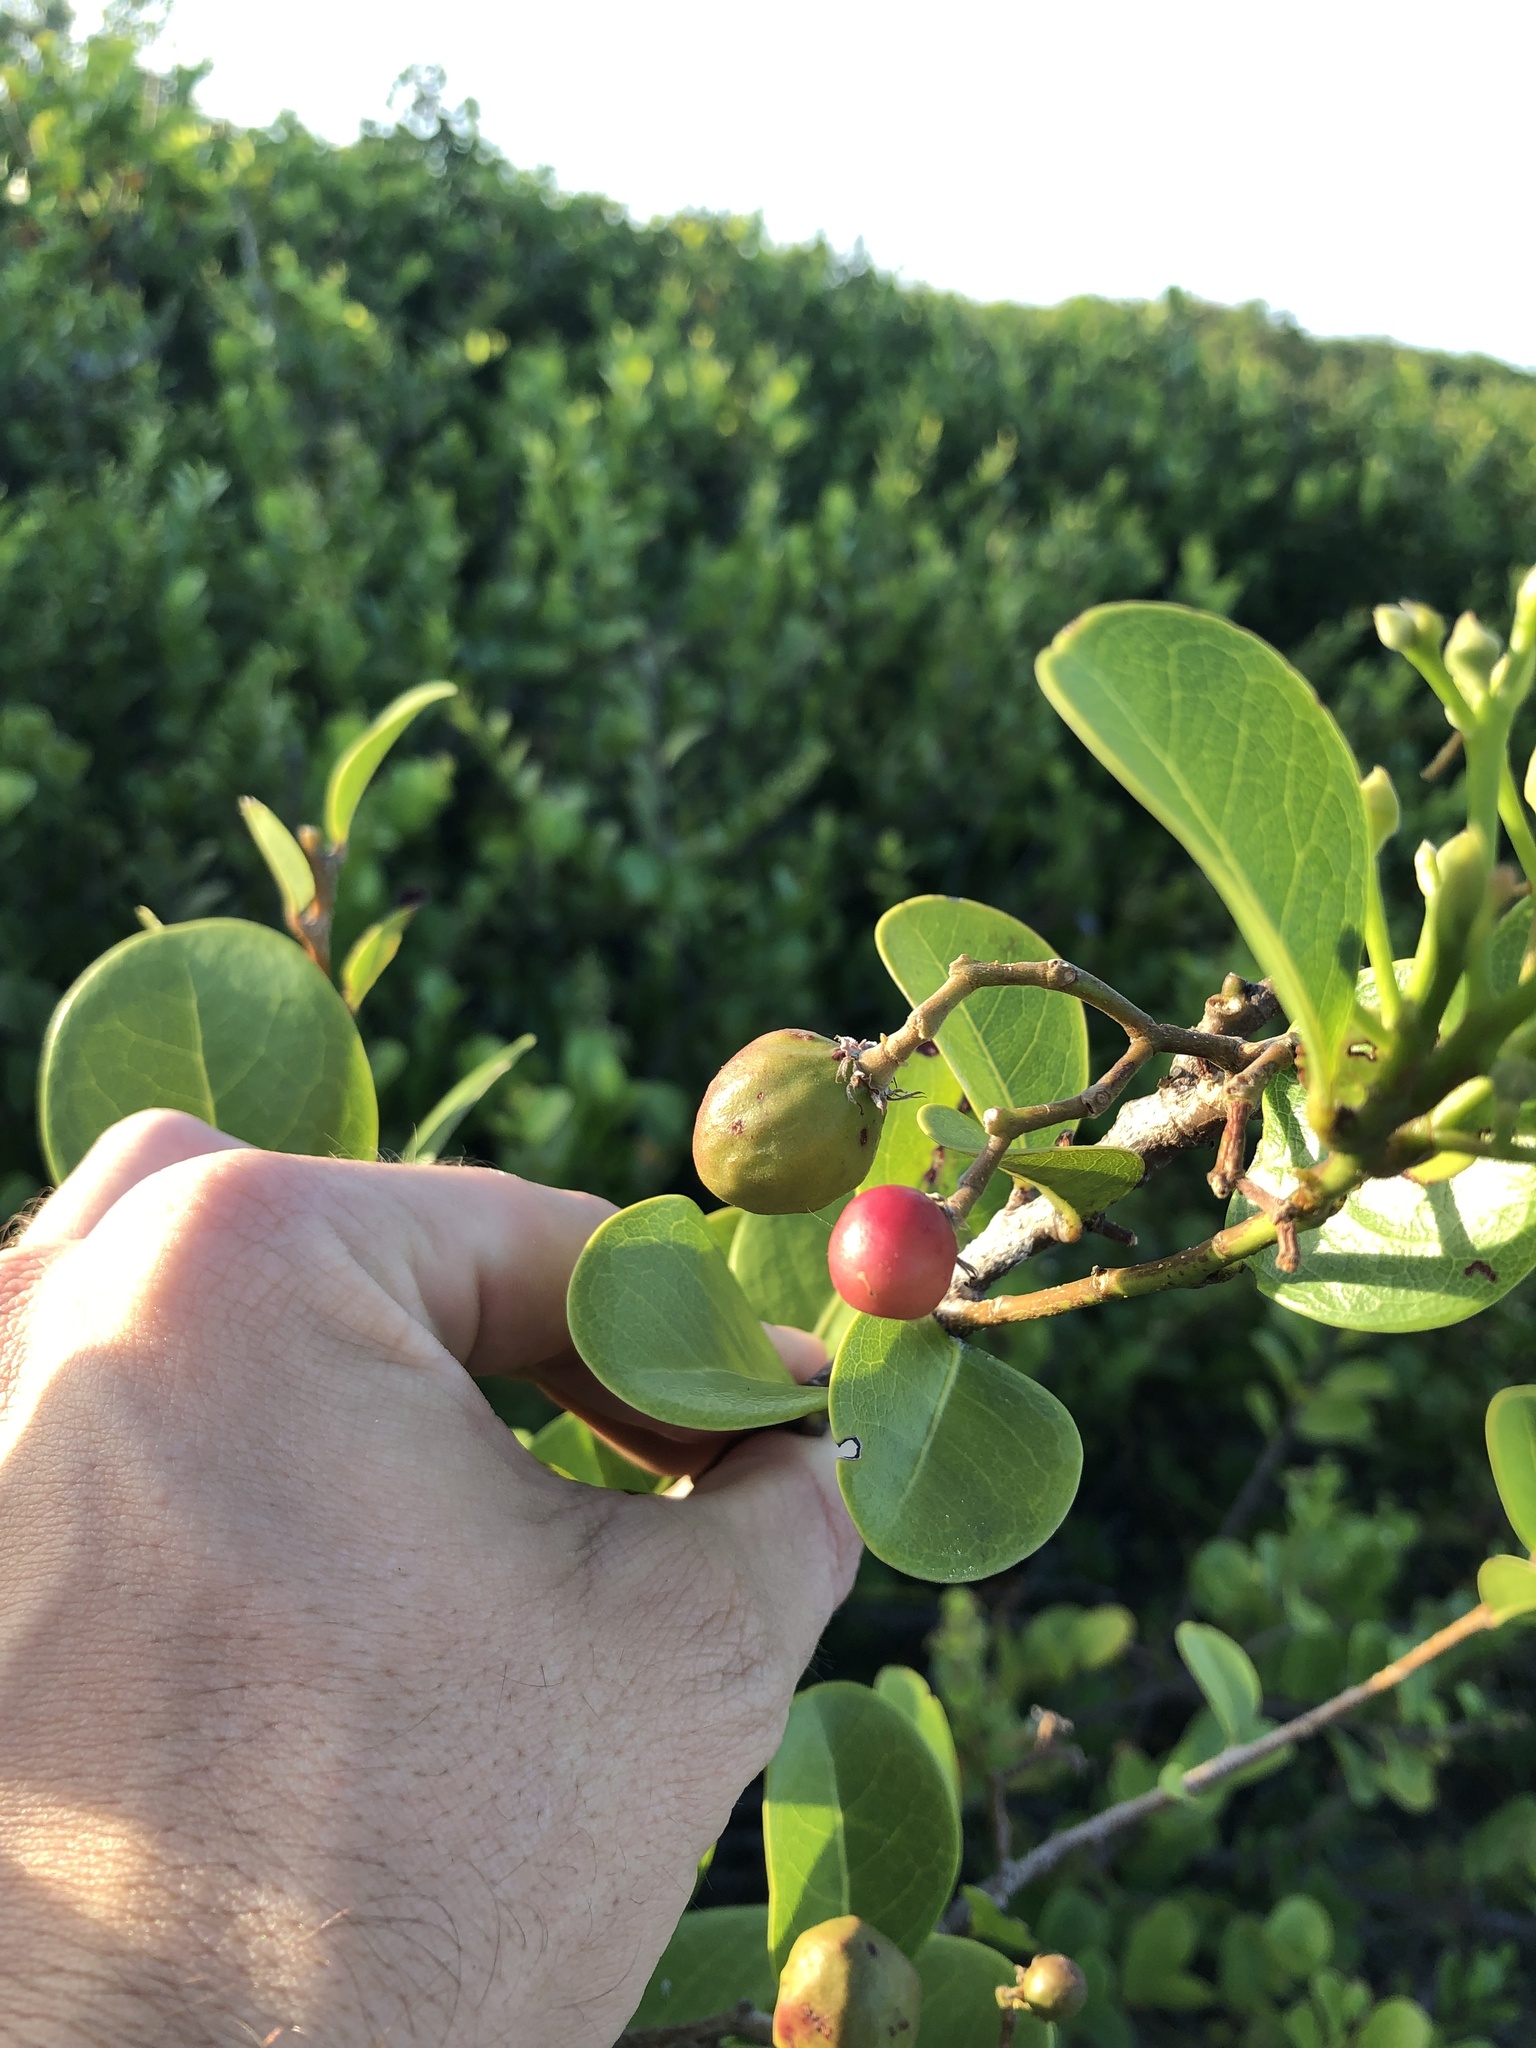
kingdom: Plantae
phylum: Tracheophyta
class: Magnoliopsida
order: Malpighiales
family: Chrysobalanaceae
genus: Chrysobalanus
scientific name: Chrysobalanus icaco
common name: Coco plum
